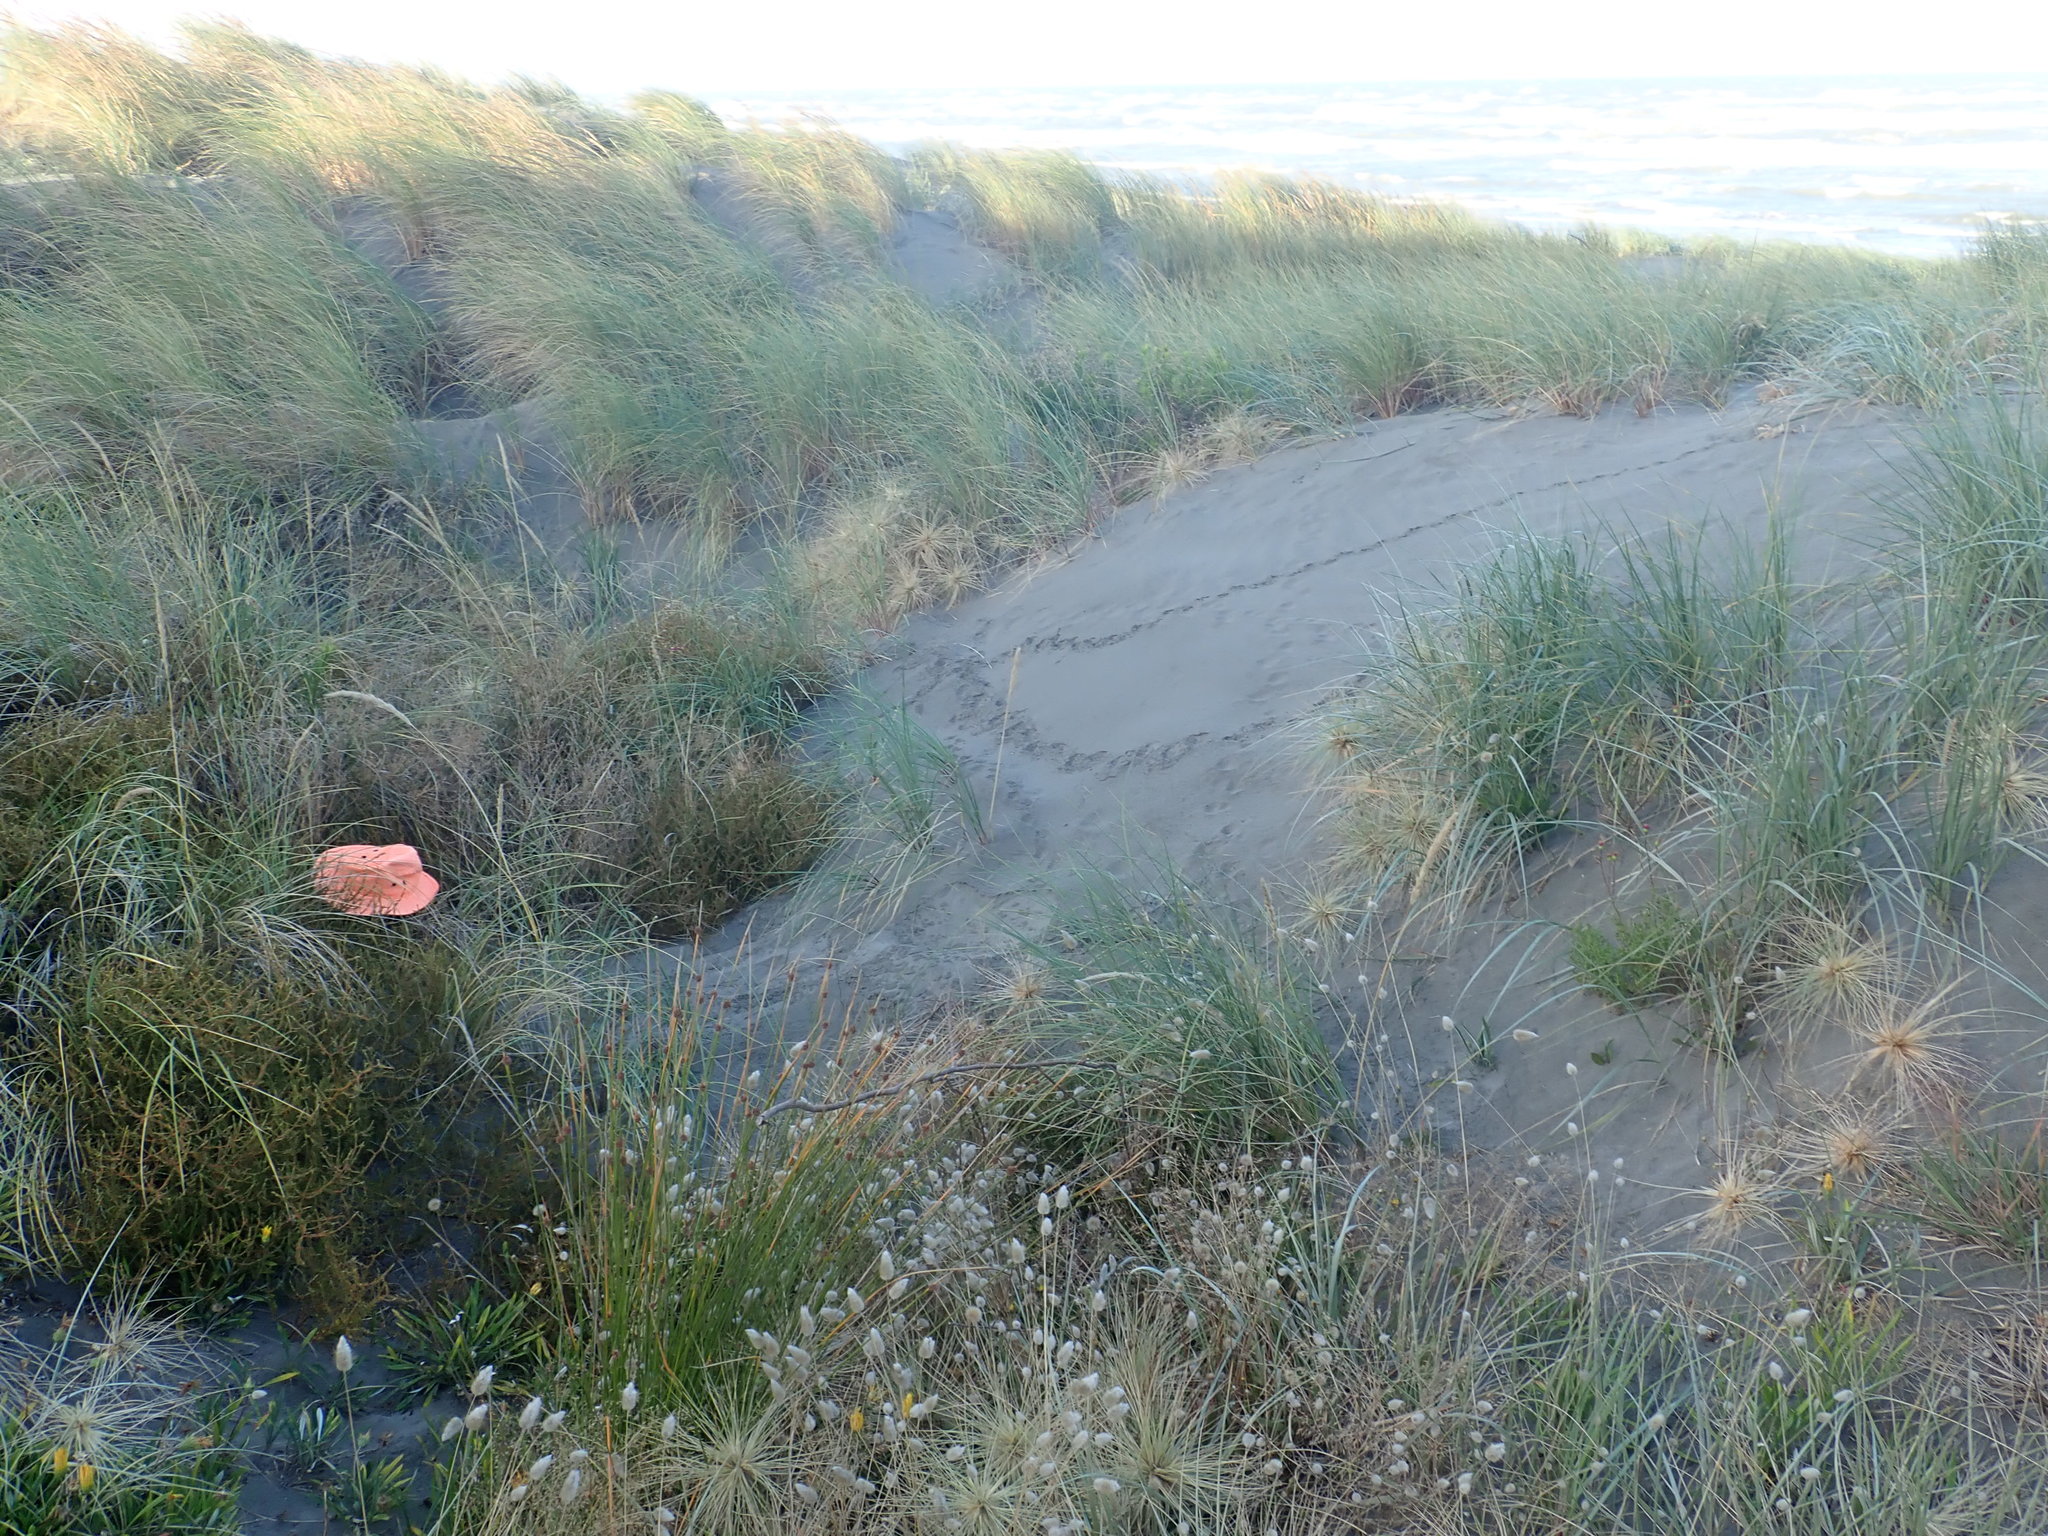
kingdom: Plantae
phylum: Tracheophyta
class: Magnoliopsida
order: Gentianales
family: Rubiaceae
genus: Coprosma
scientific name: Coprosma acerosa
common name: Sand coprosma
